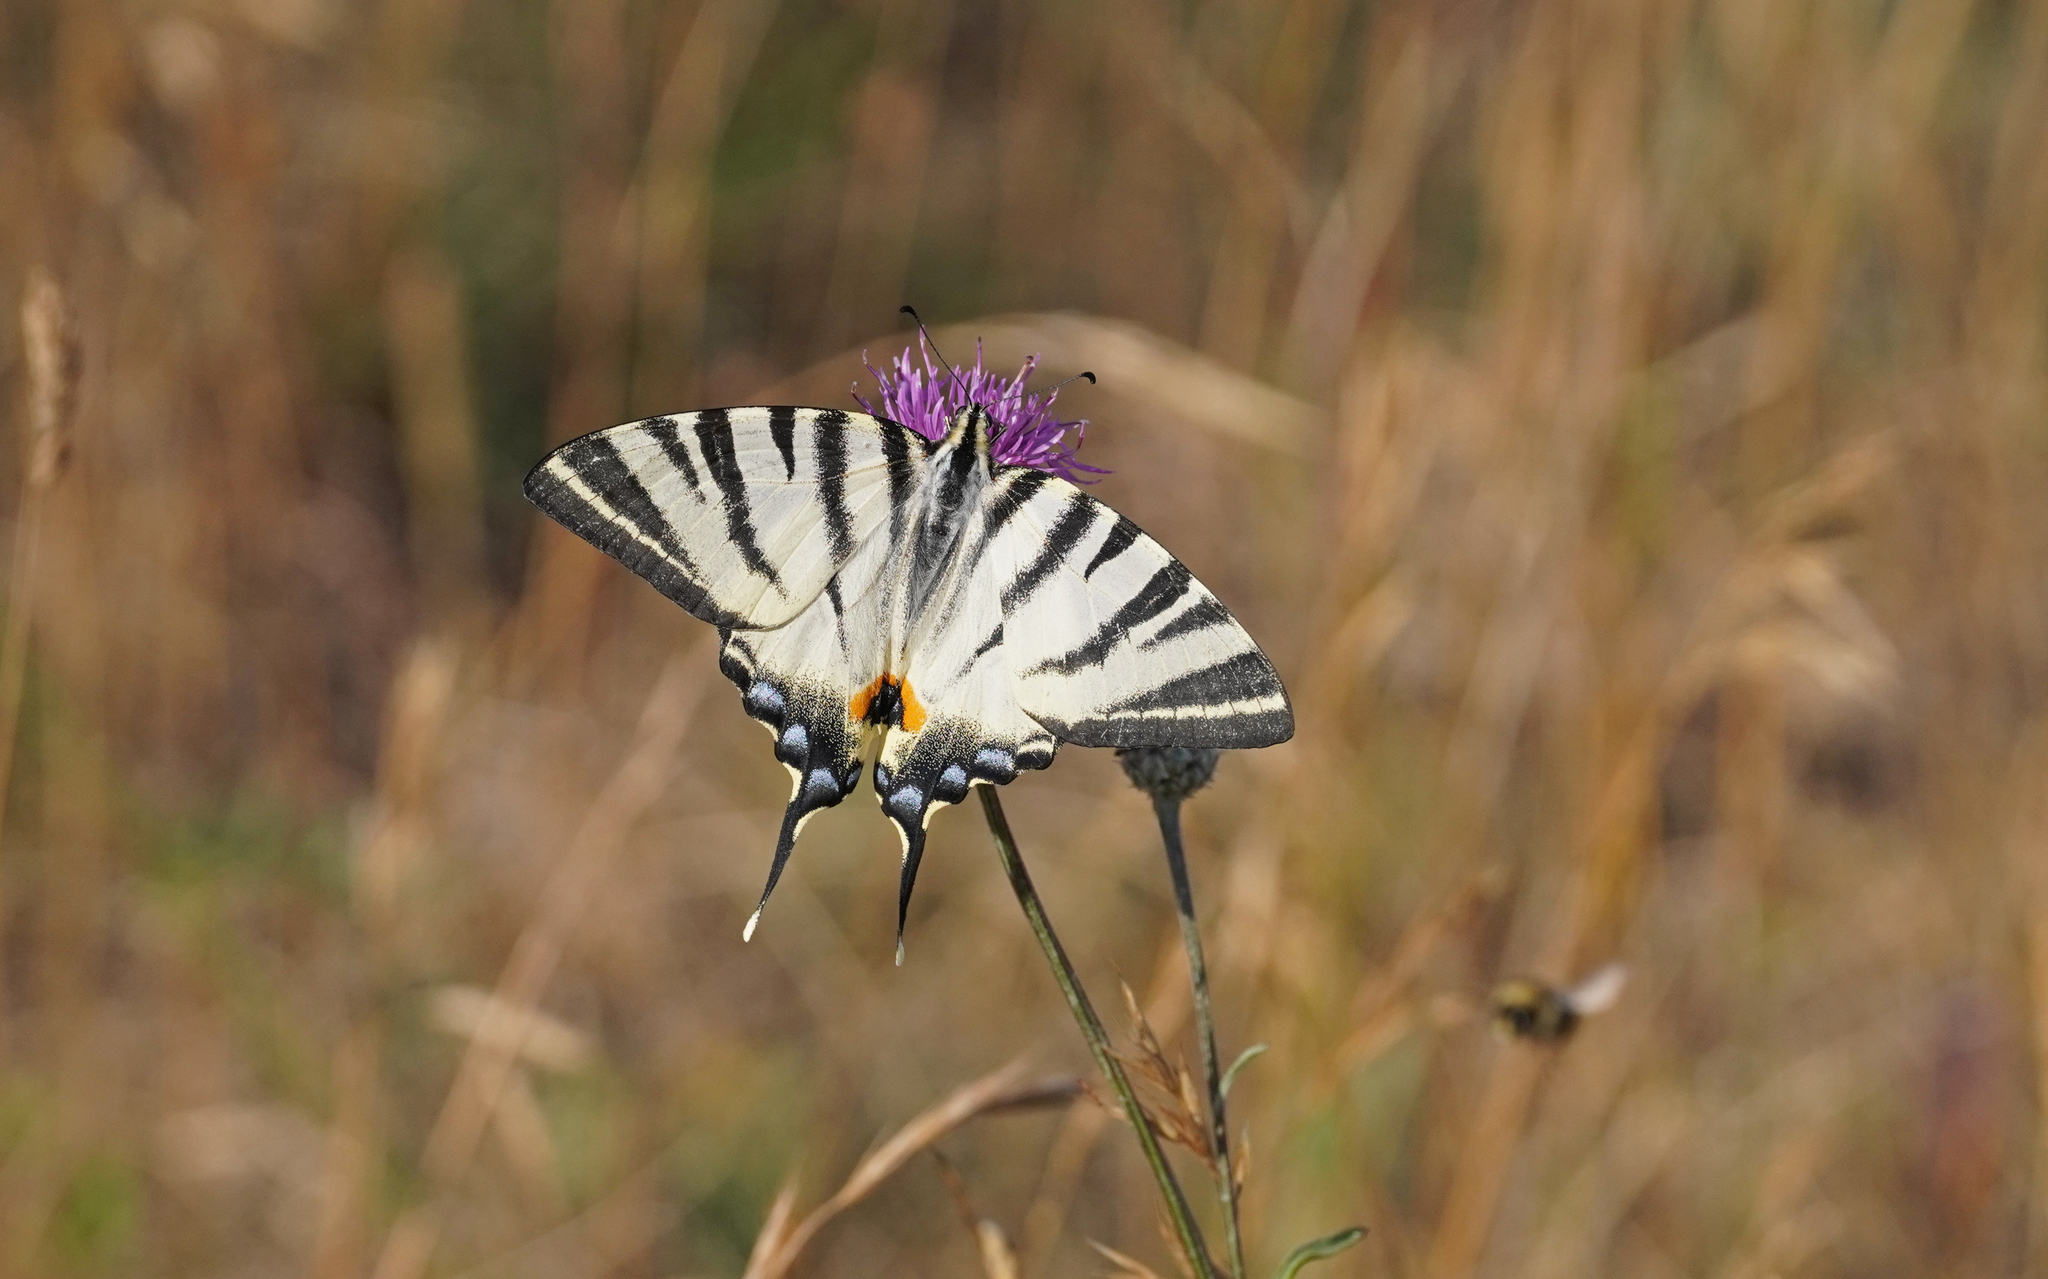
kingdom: Animalia
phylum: Arthropoda
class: Insecta
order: Lepidoptera
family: Papilionidae
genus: Iphiclides
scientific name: Iphiclides podalirius
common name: Scarce swallowtail
